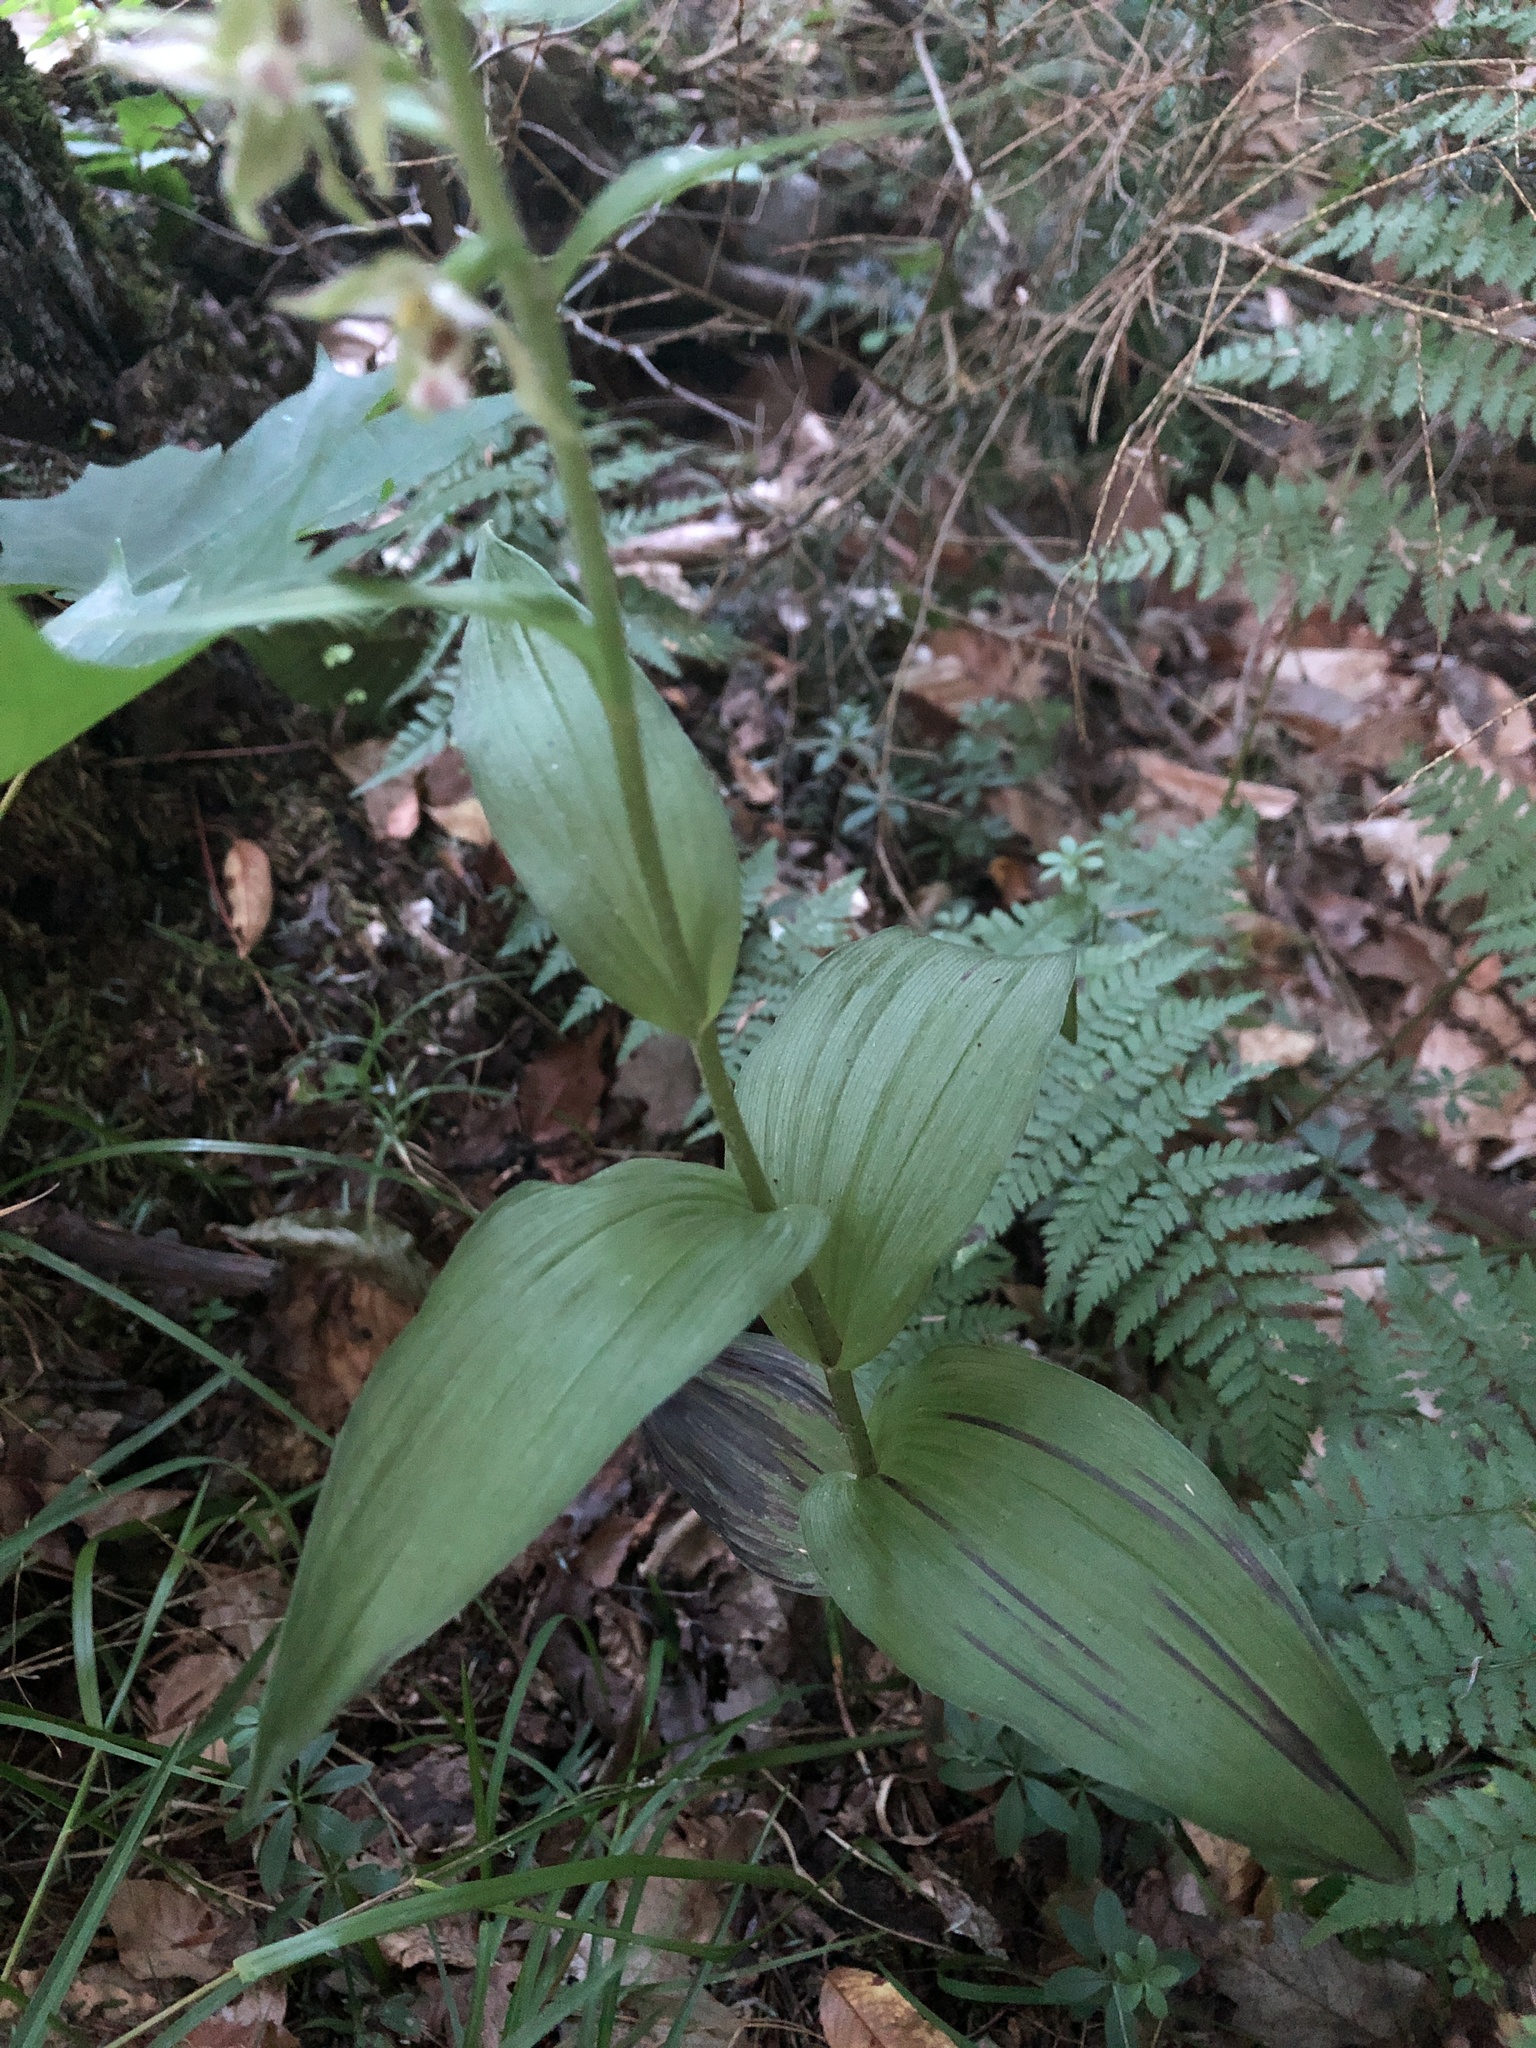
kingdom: Plantae
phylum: Tracheophyta
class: Liliopsida
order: Asparagales
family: Orchidaceae
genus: Epipactis
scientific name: Epipactis helleborine
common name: Broad-leaved helleborine
